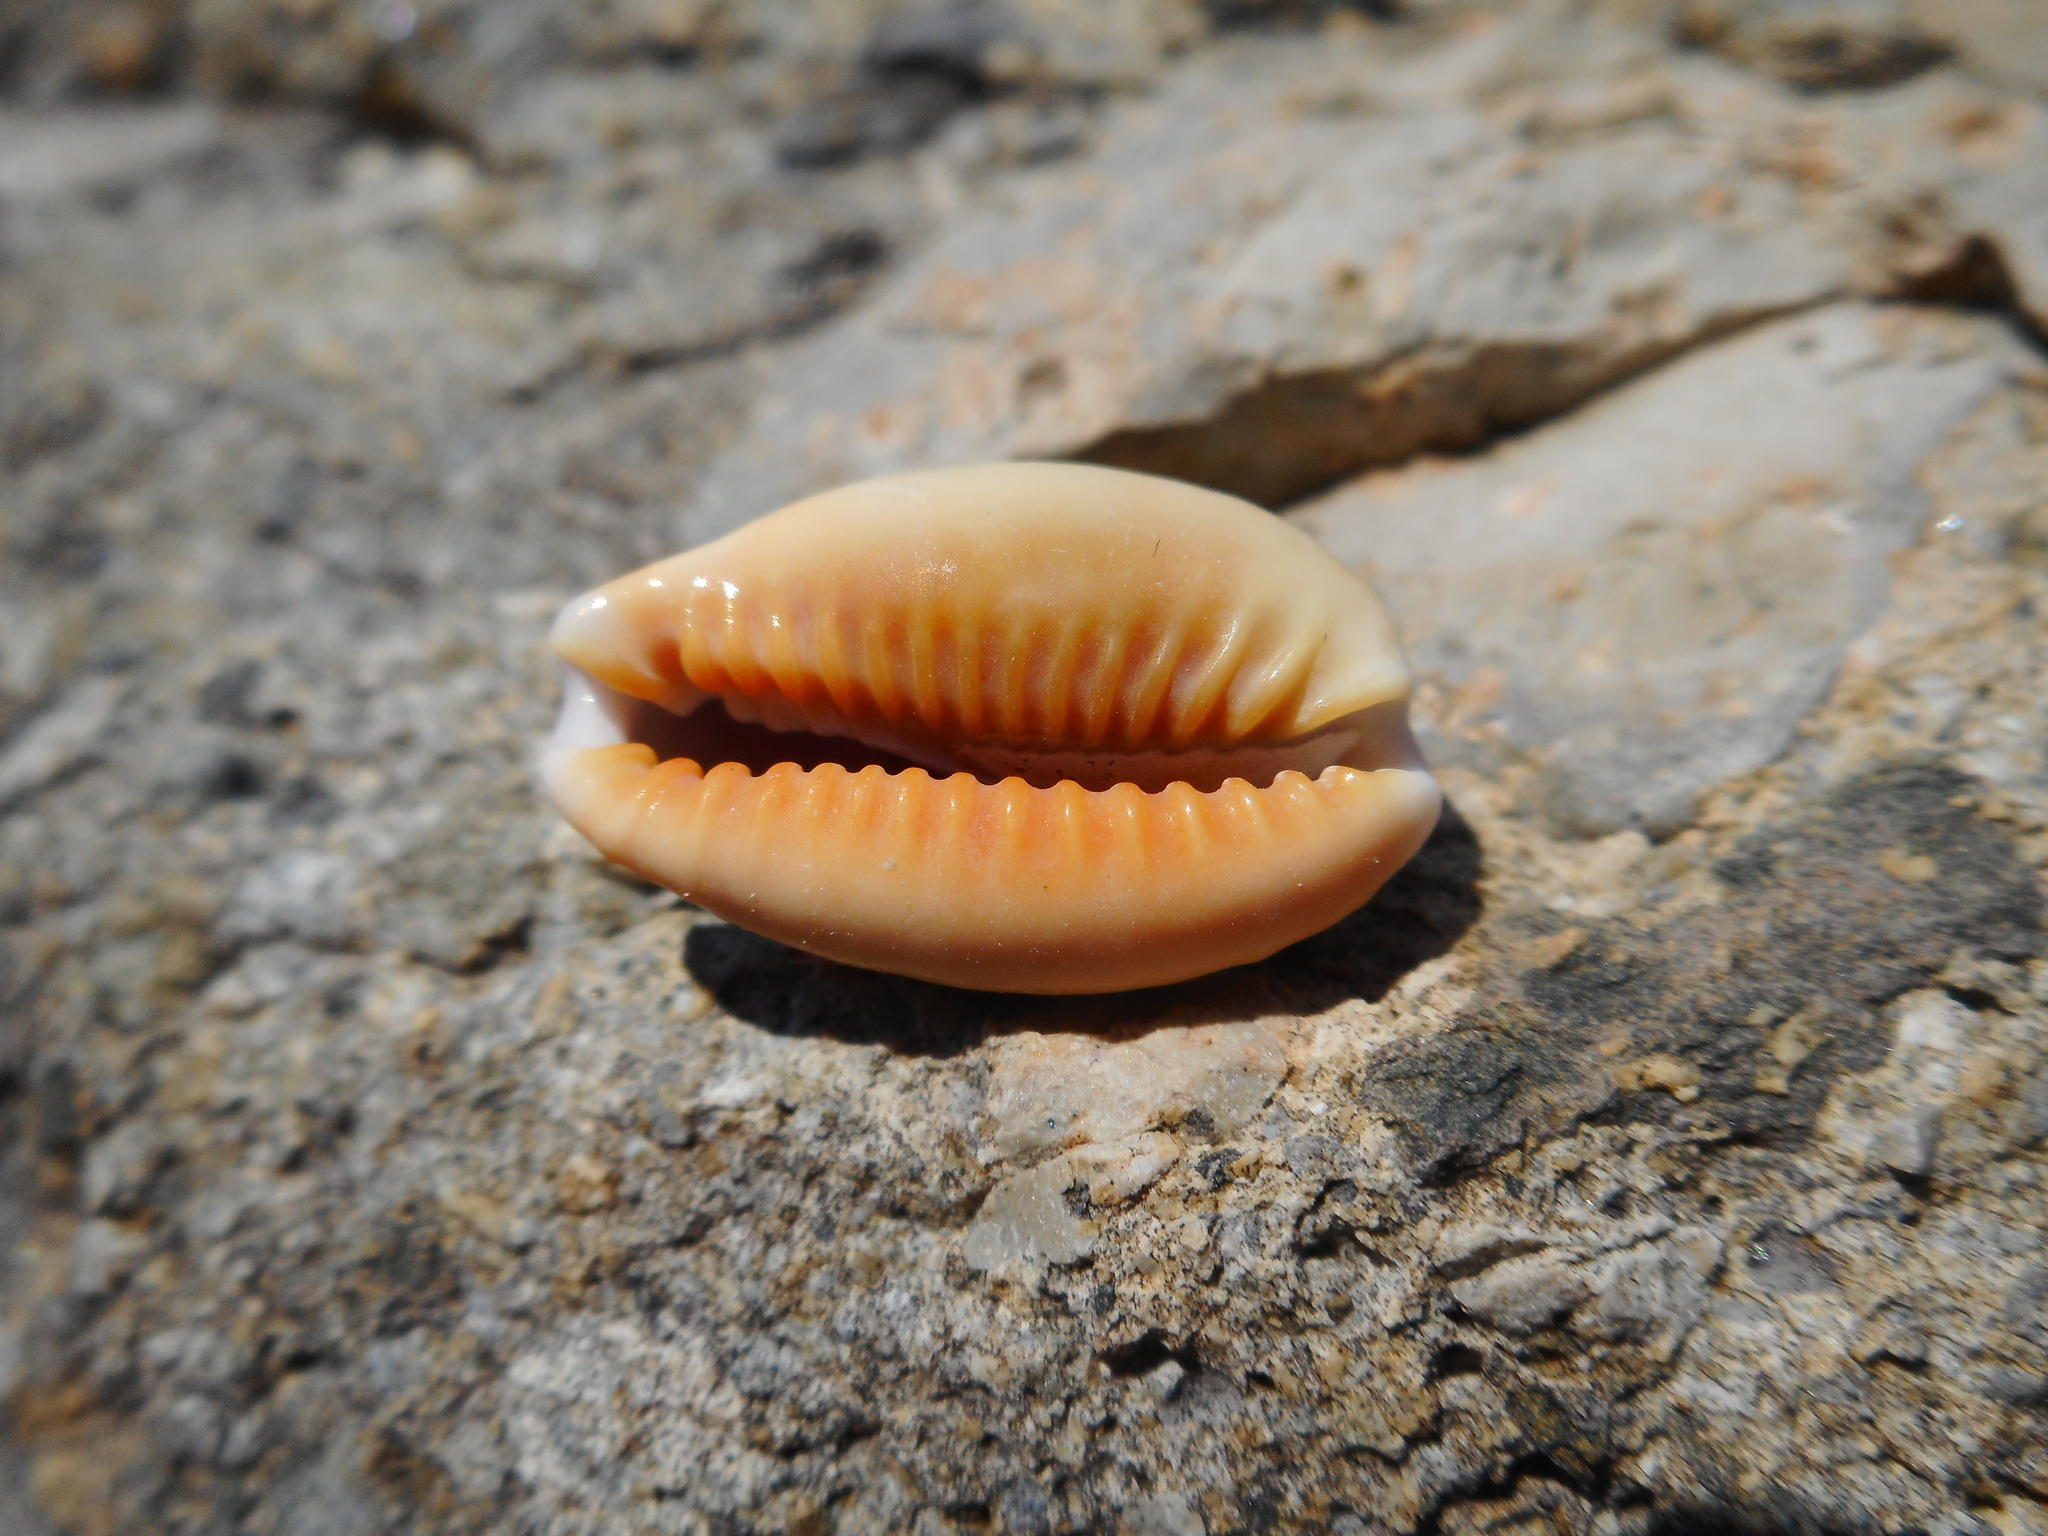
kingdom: Animalia
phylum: Mollusca
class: Gastropoda
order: Littorinimorpha
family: Cypraeidae
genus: Naria
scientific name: Naria helvola
